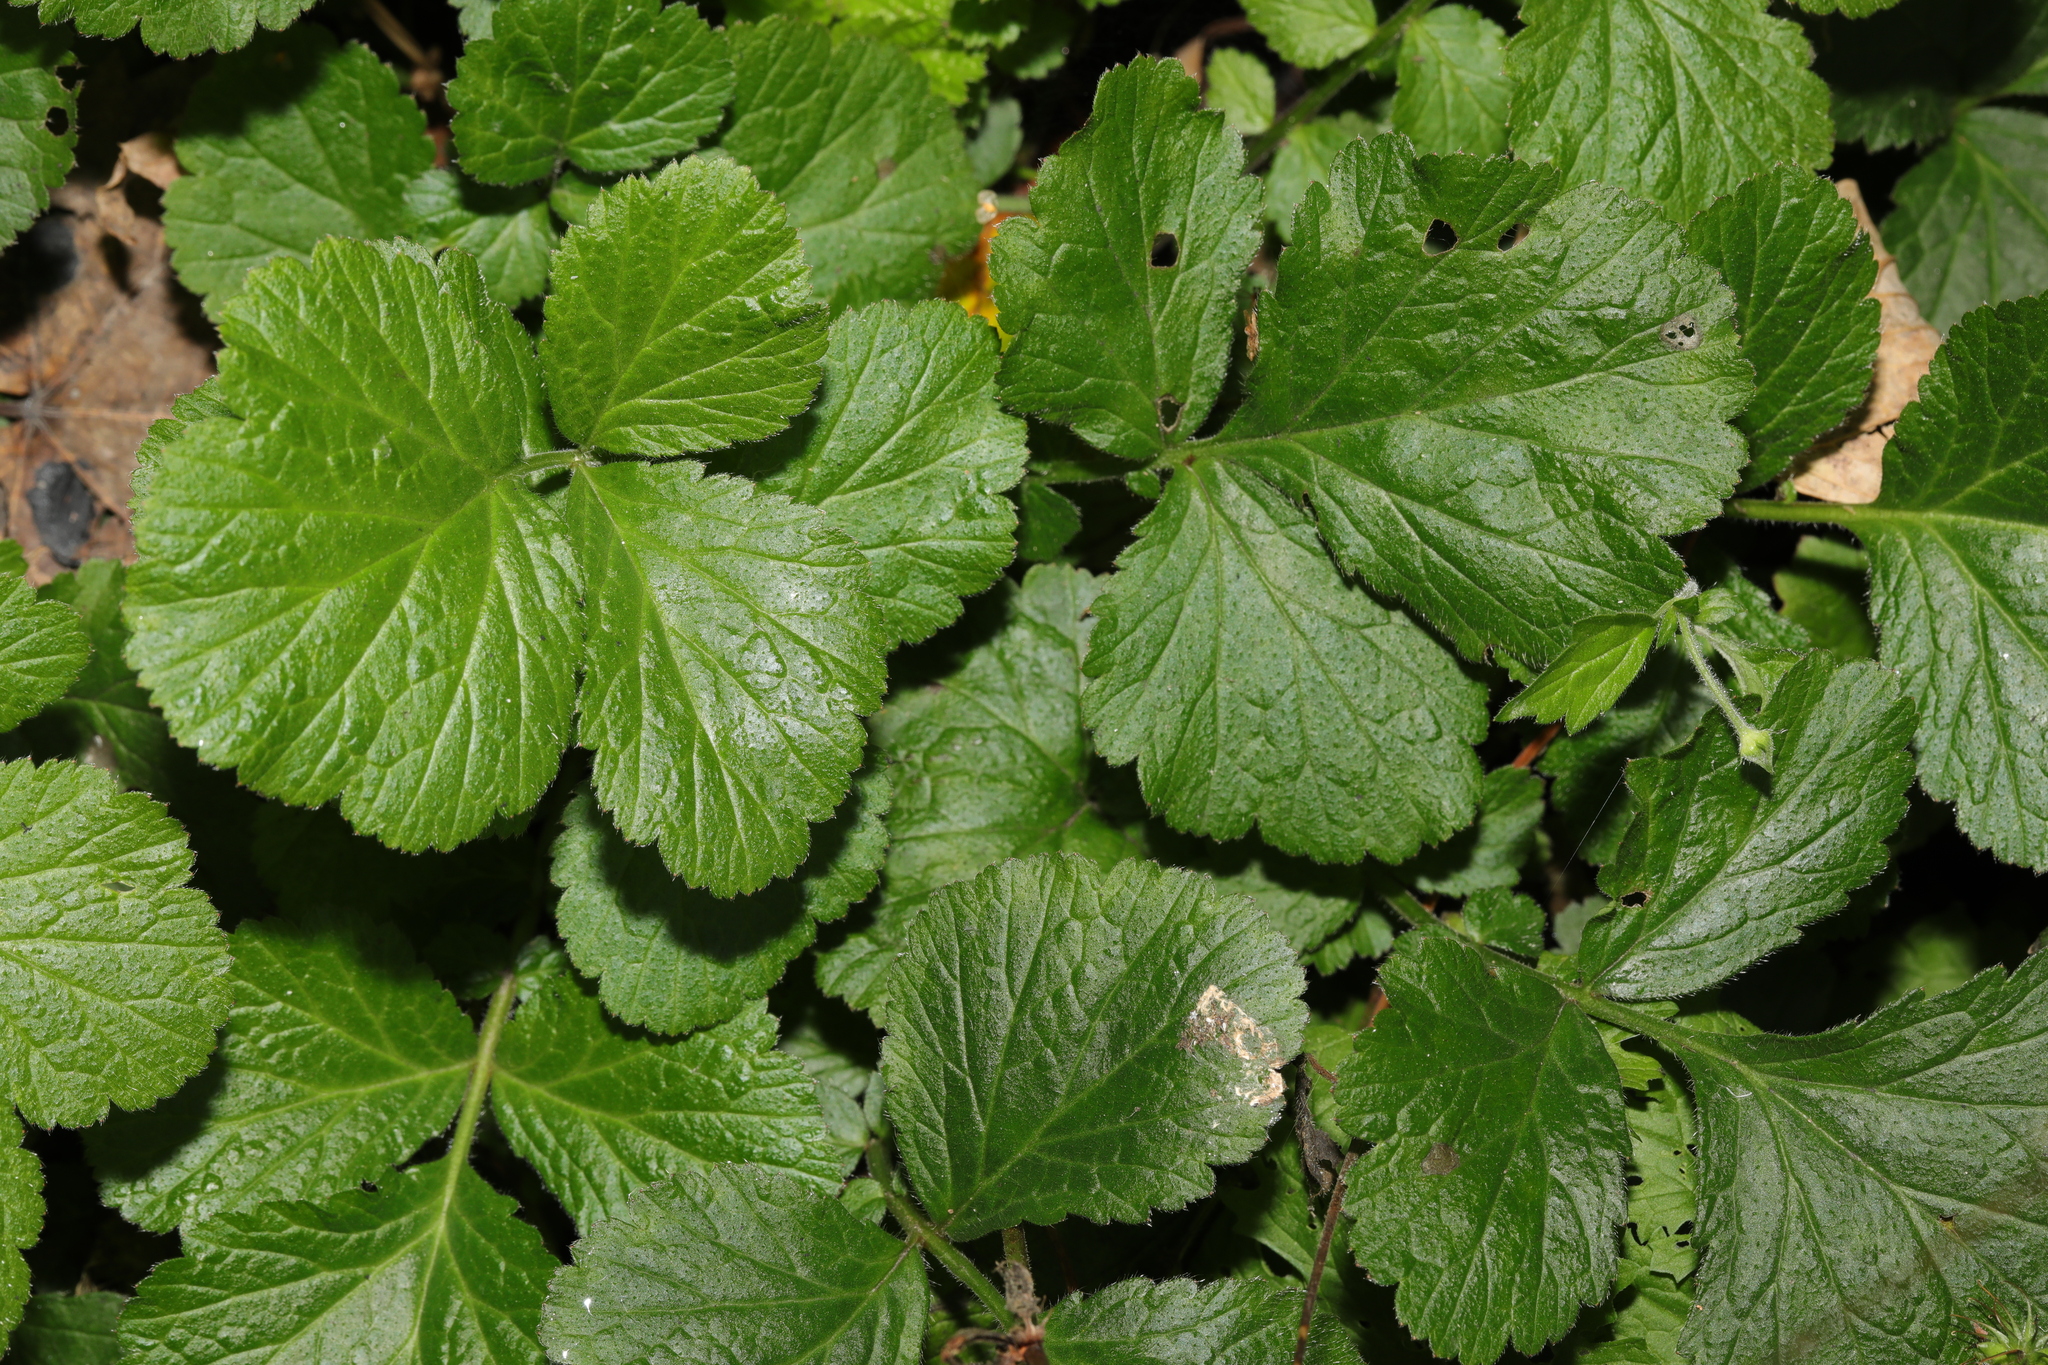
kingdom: Plantae
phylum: Tracheophyta
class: Magnoliopsida
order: Rosales
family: Rosaceae
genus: Geum
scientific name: Geum urbanum
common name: Wood avens
